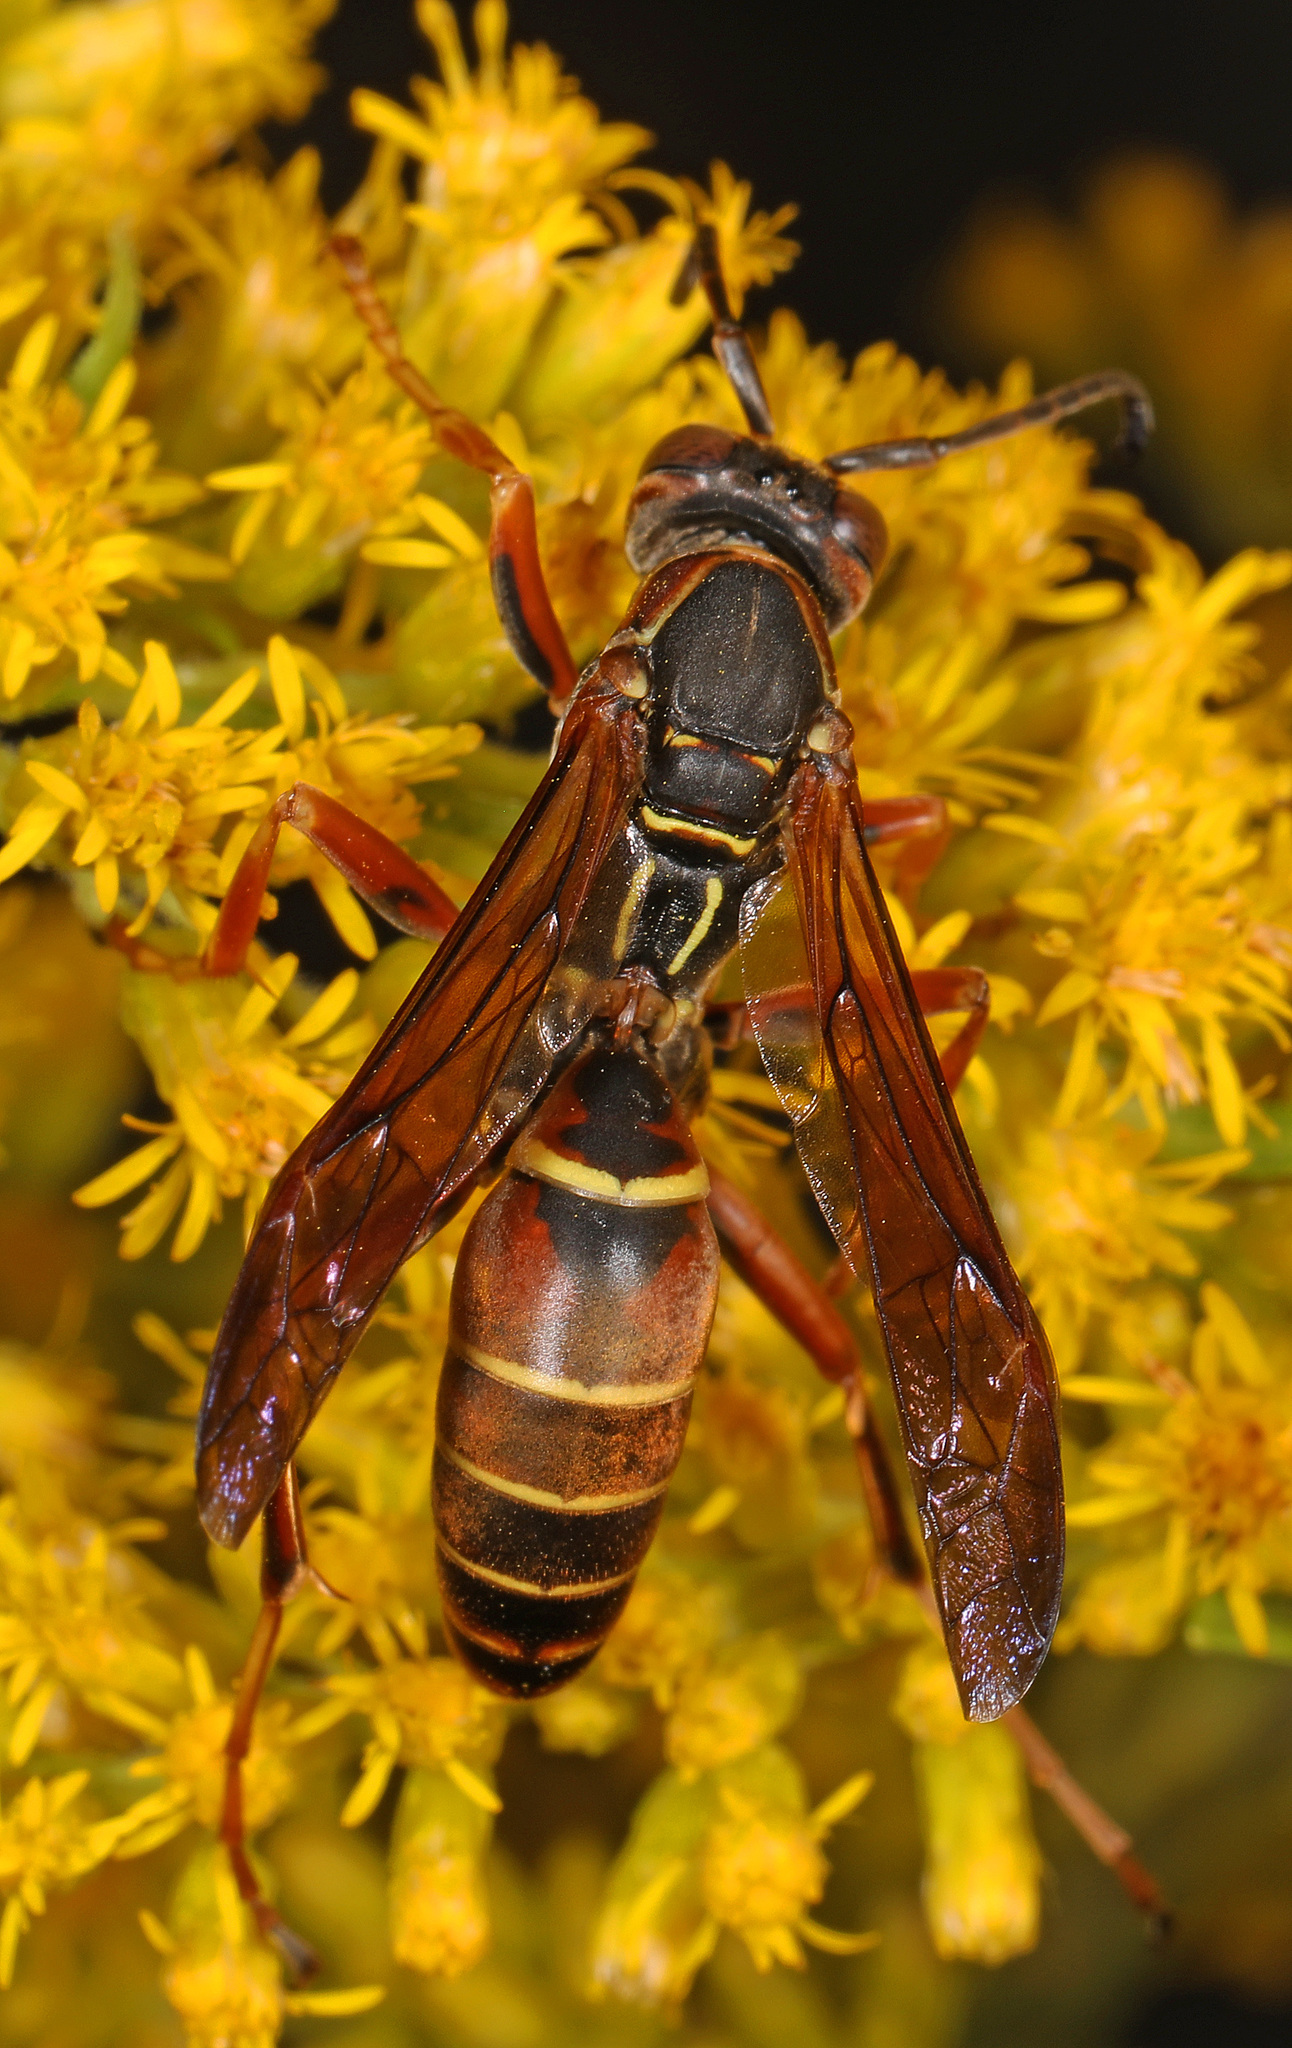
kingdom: Animalia
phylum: Arthropoda
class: Insecta
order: Hymenoptera
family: Eumenidae
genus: Polistes
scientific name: Polistes fuscatus
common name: Dark paper wasp
